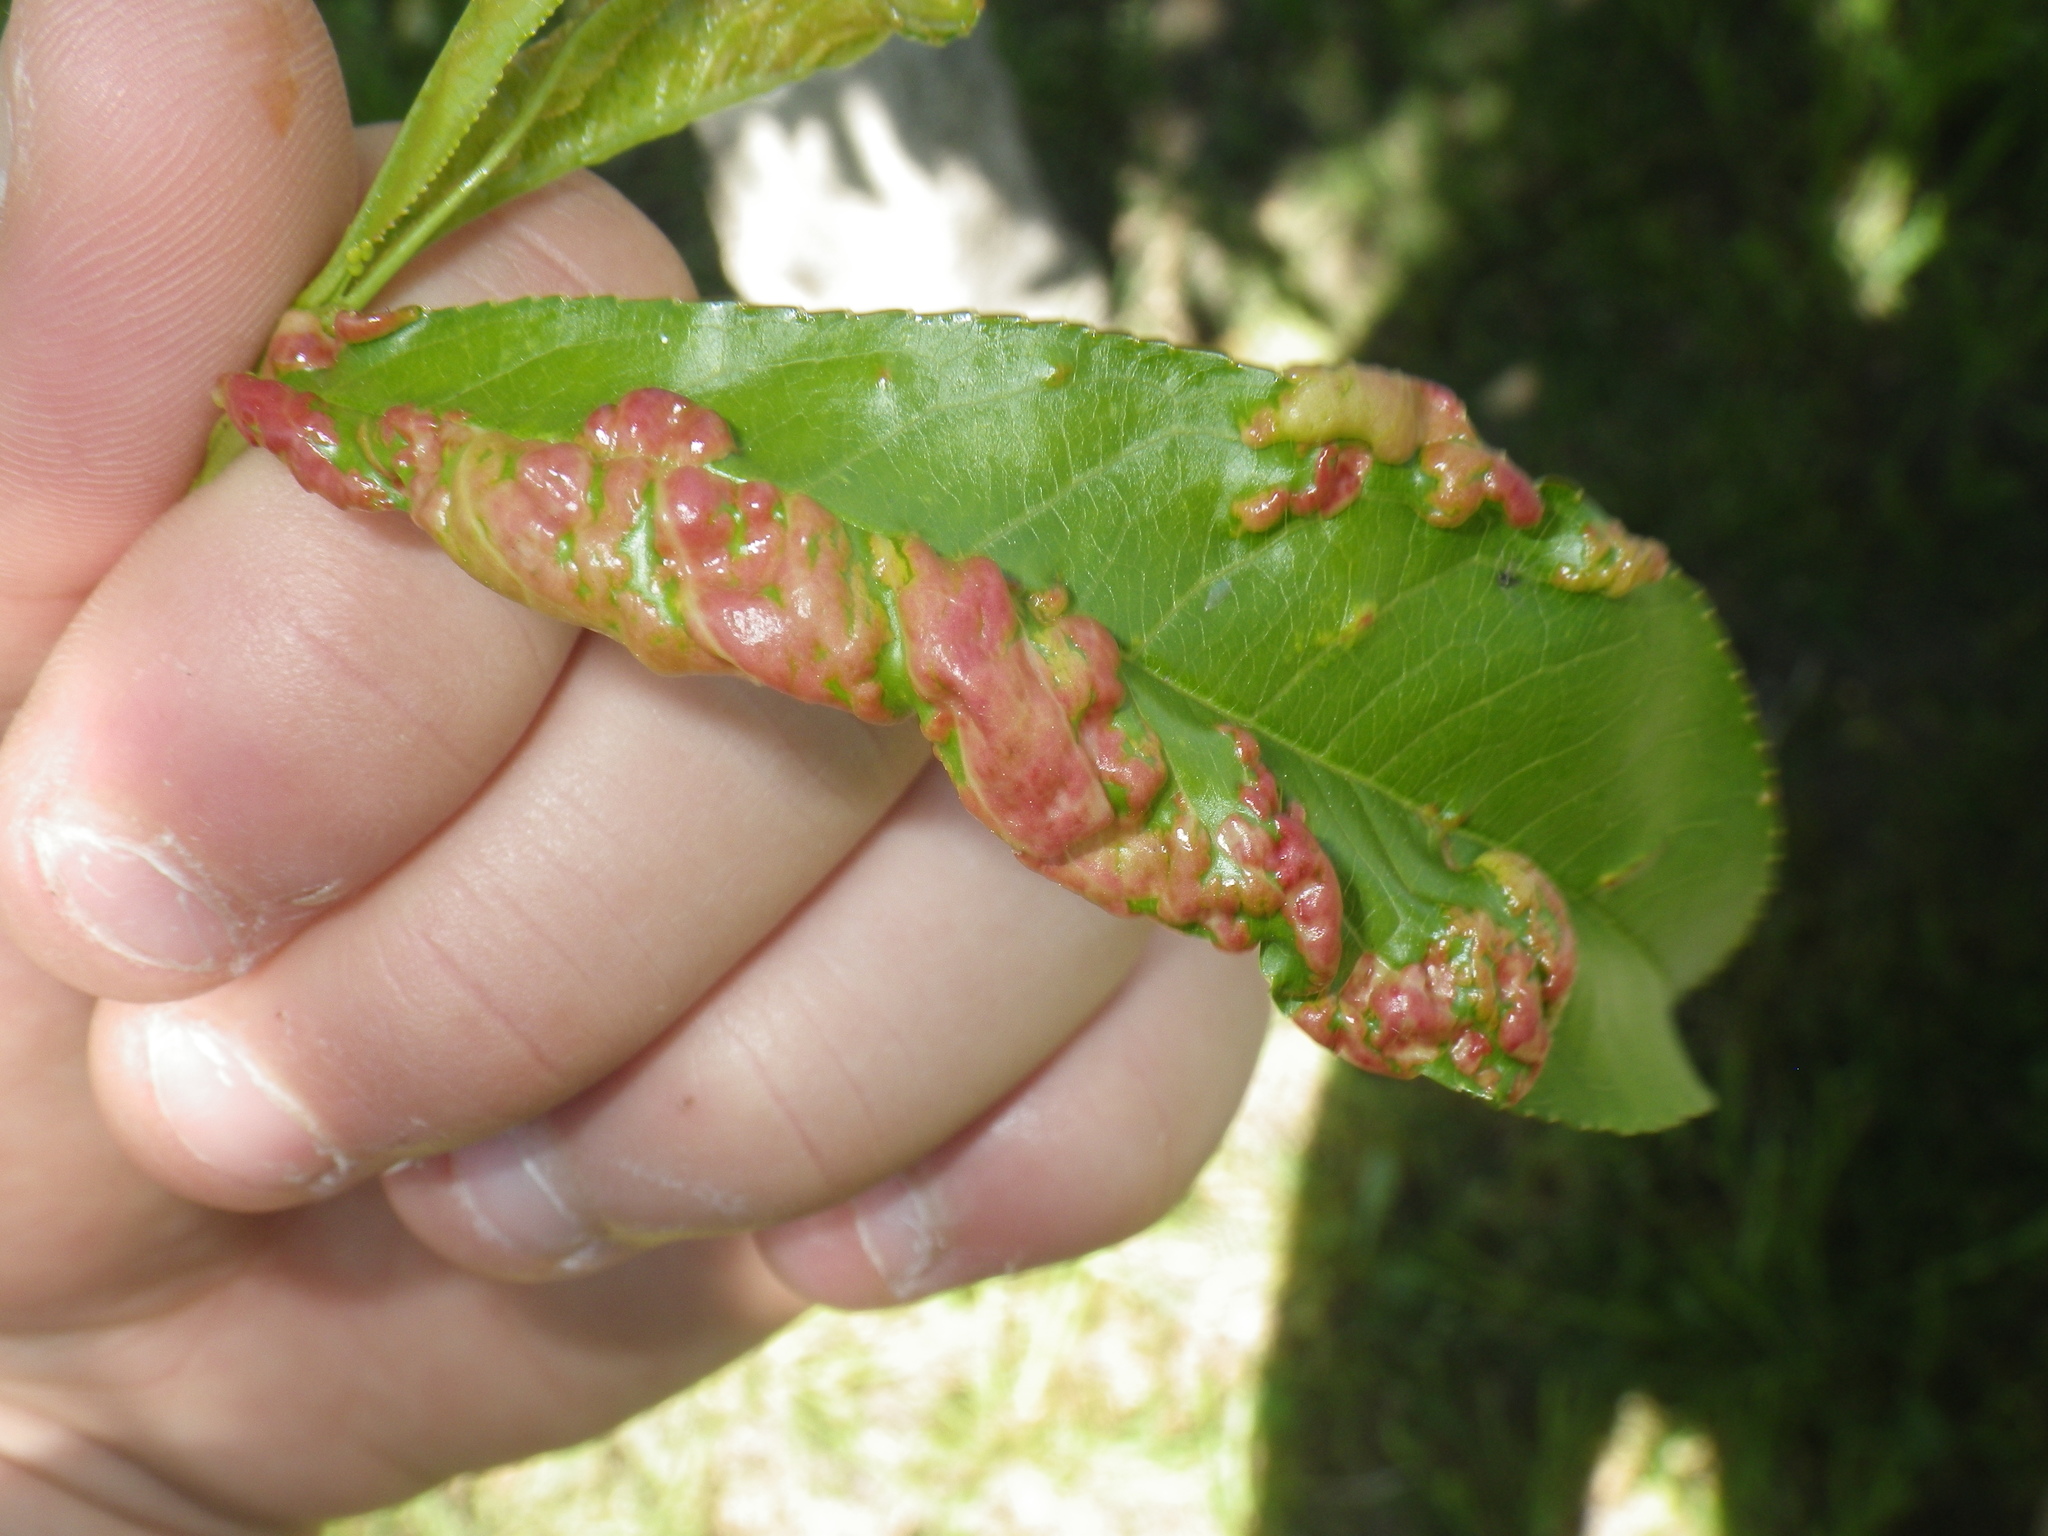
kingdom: Fungi
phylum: Ascomycota
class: Taphrinomycetes
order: Taphrinales
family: Taphrinaceae
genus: Taphrina
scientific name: Taphrina deformans
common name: Peach leaf curl
